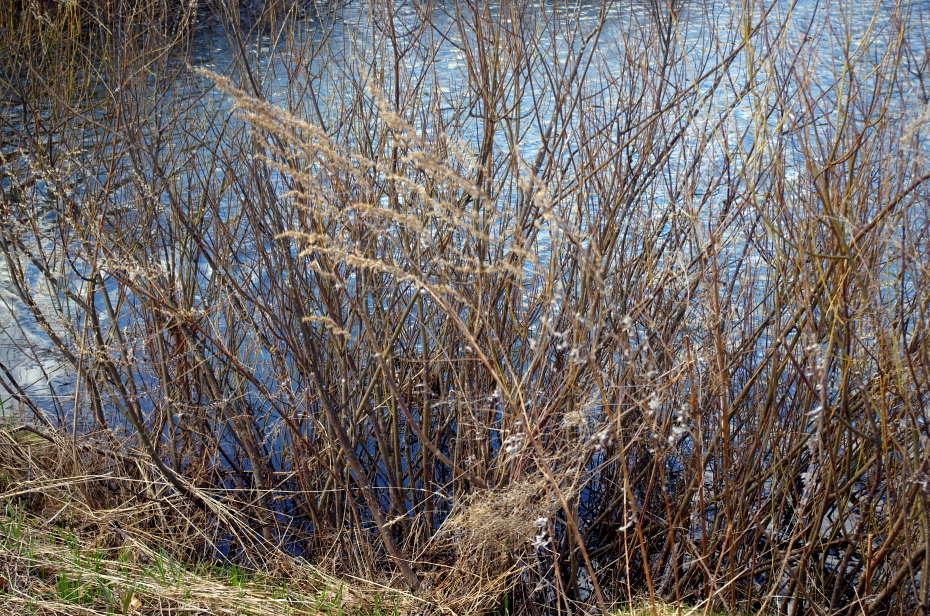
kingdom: Plantae
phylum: Tracheophyta
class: Magnoliopsida
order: Asterales
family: Asteraceae
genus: Artemisia
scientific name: Artemisia vulgaris
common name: Mugwort
